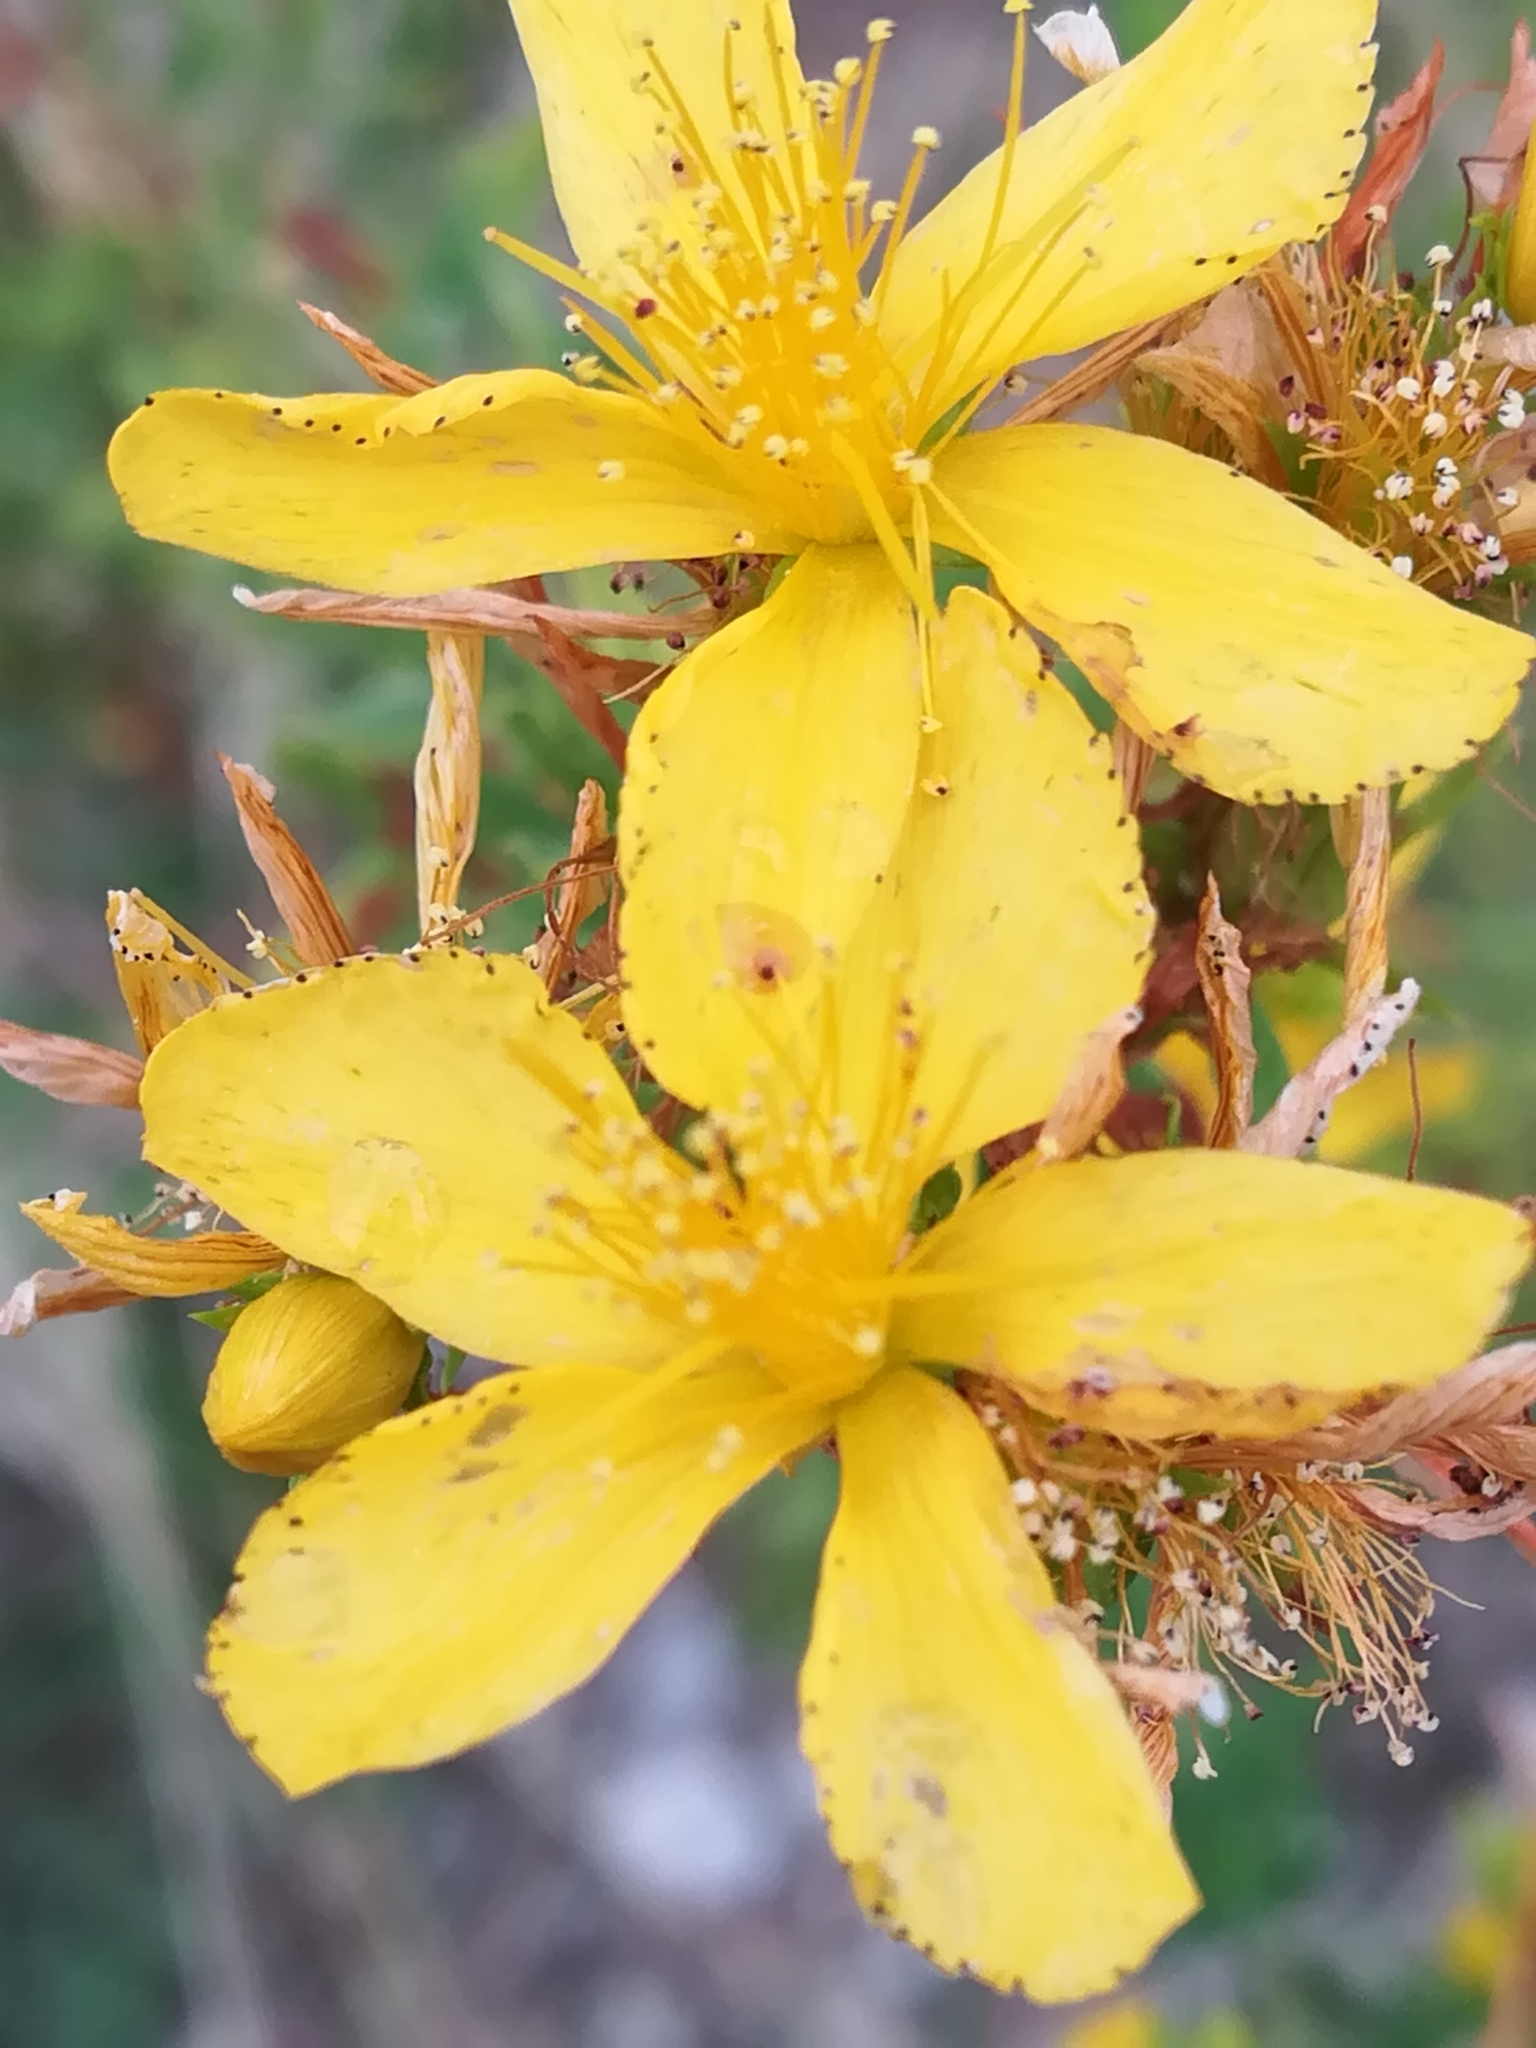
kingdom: Plantae
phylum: Tracheophyta
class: Magnoliopsida
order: Malpighiales
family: Hypericaceae
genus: Hypericum
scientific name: Hypericum perforatum
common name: Common st. johnswort
